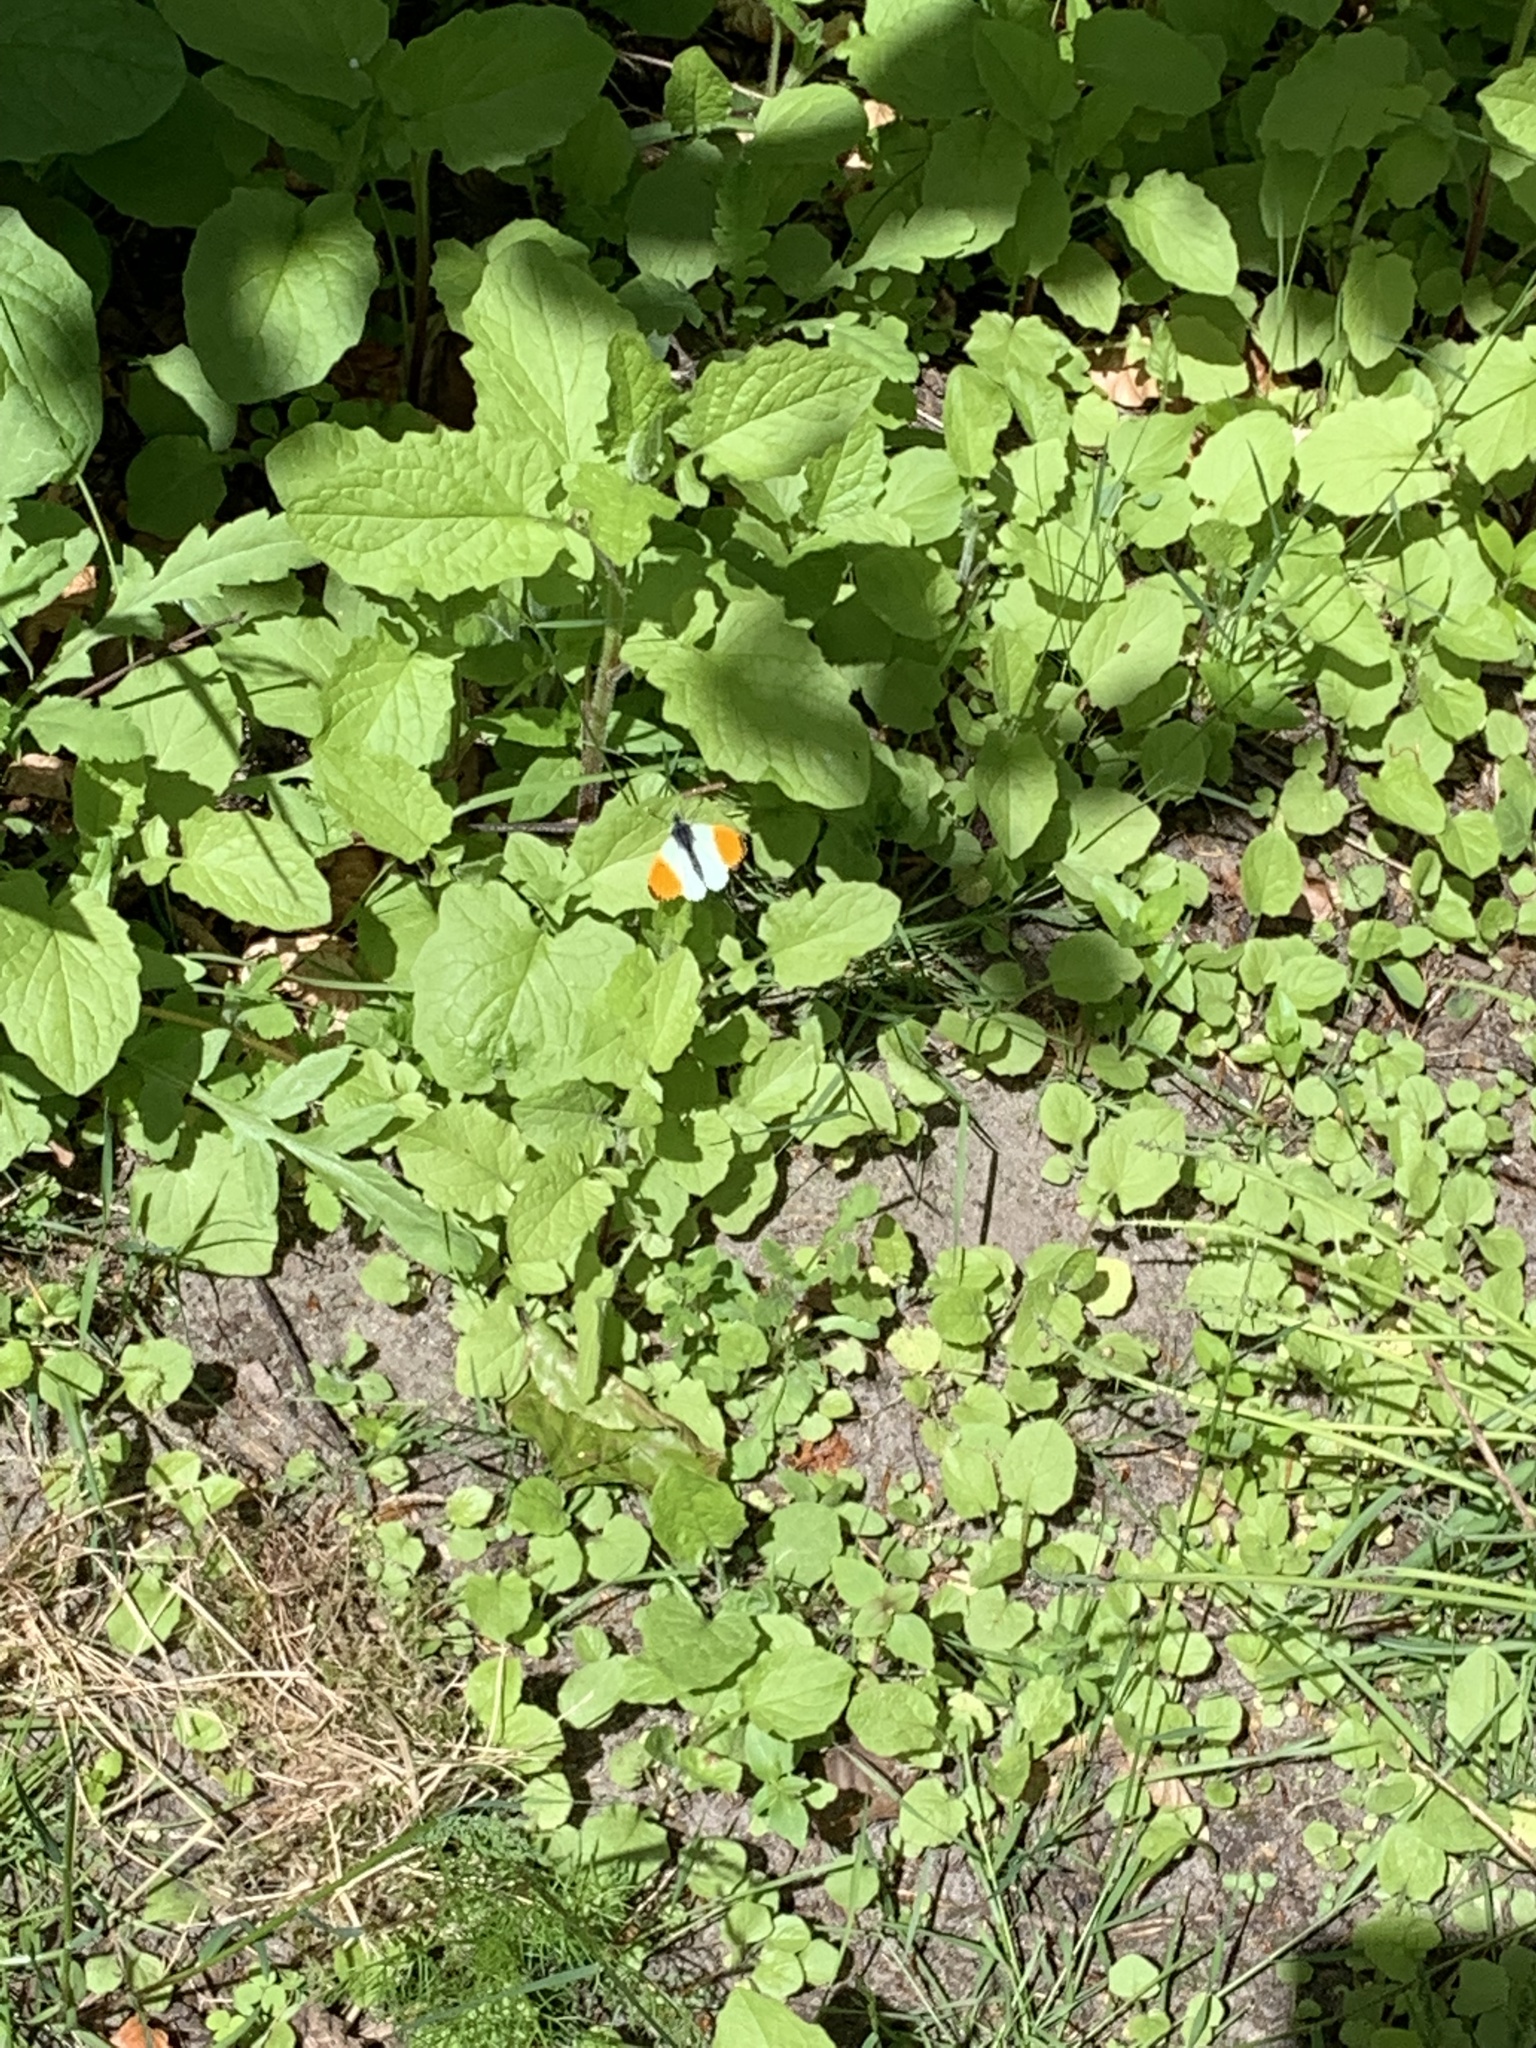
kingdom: Animalia
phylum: Arthropoda
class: Insecta
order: Lepidoptera
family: Pieridae
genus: Anthocharis
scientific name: Anthocharis cardamines
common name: Orange-tip
